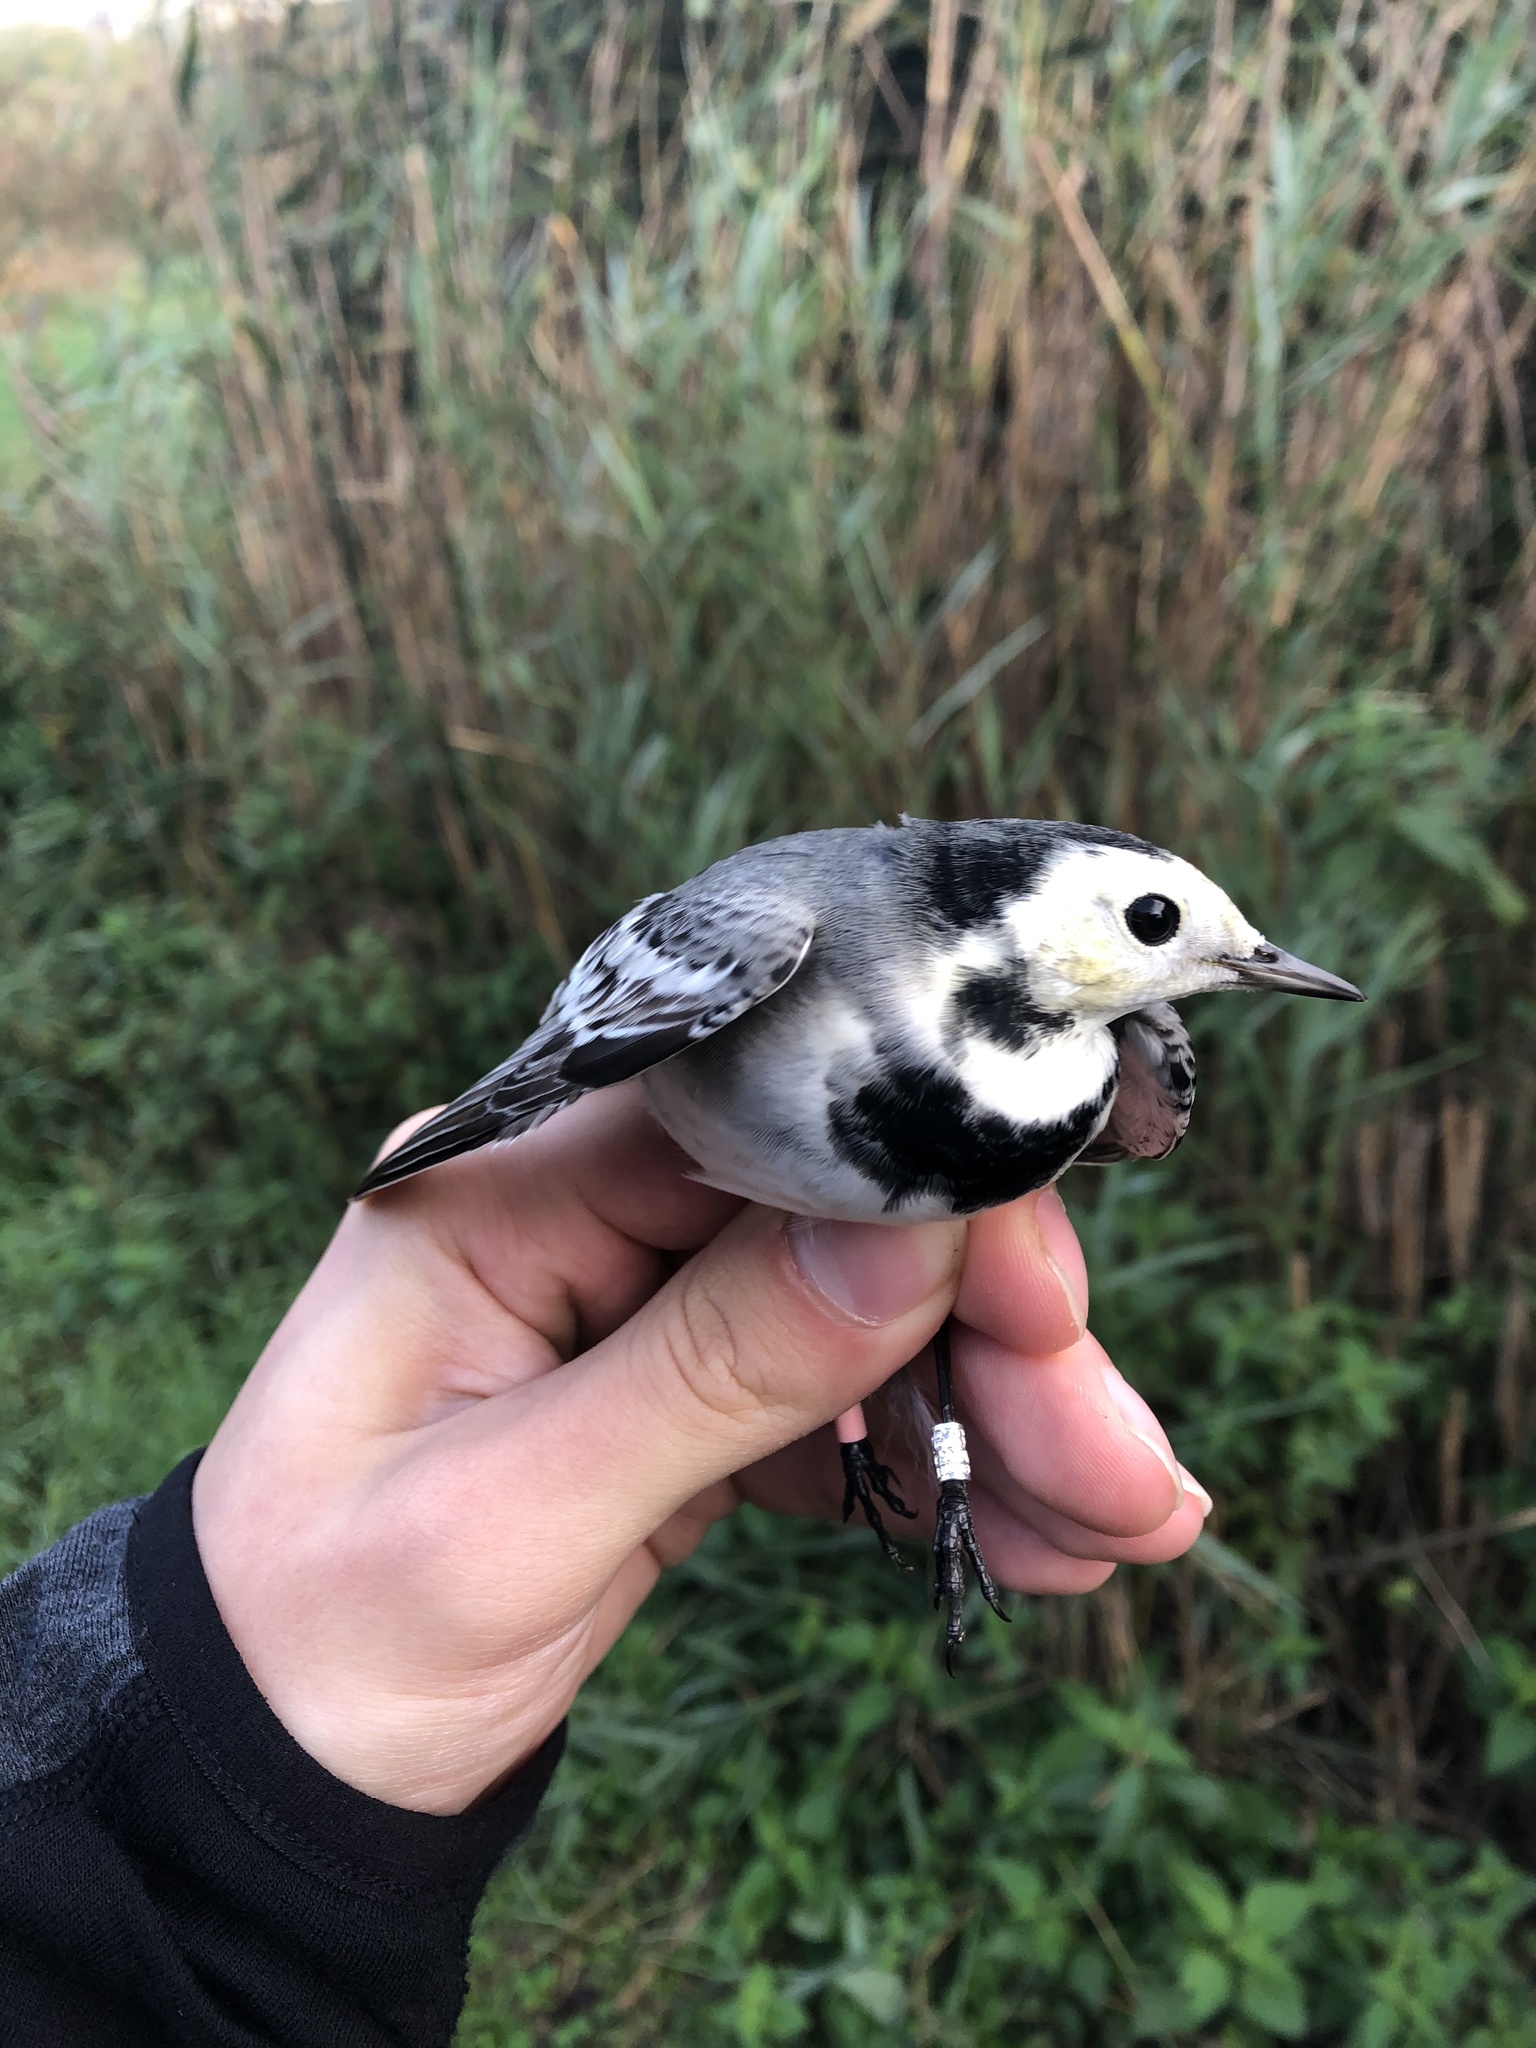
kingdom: Animalia
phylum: Chordata
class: Aves
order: Passeriformes
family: Motacillidae
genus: Motacilla
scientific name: Motacilla alba
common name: White wagtail
